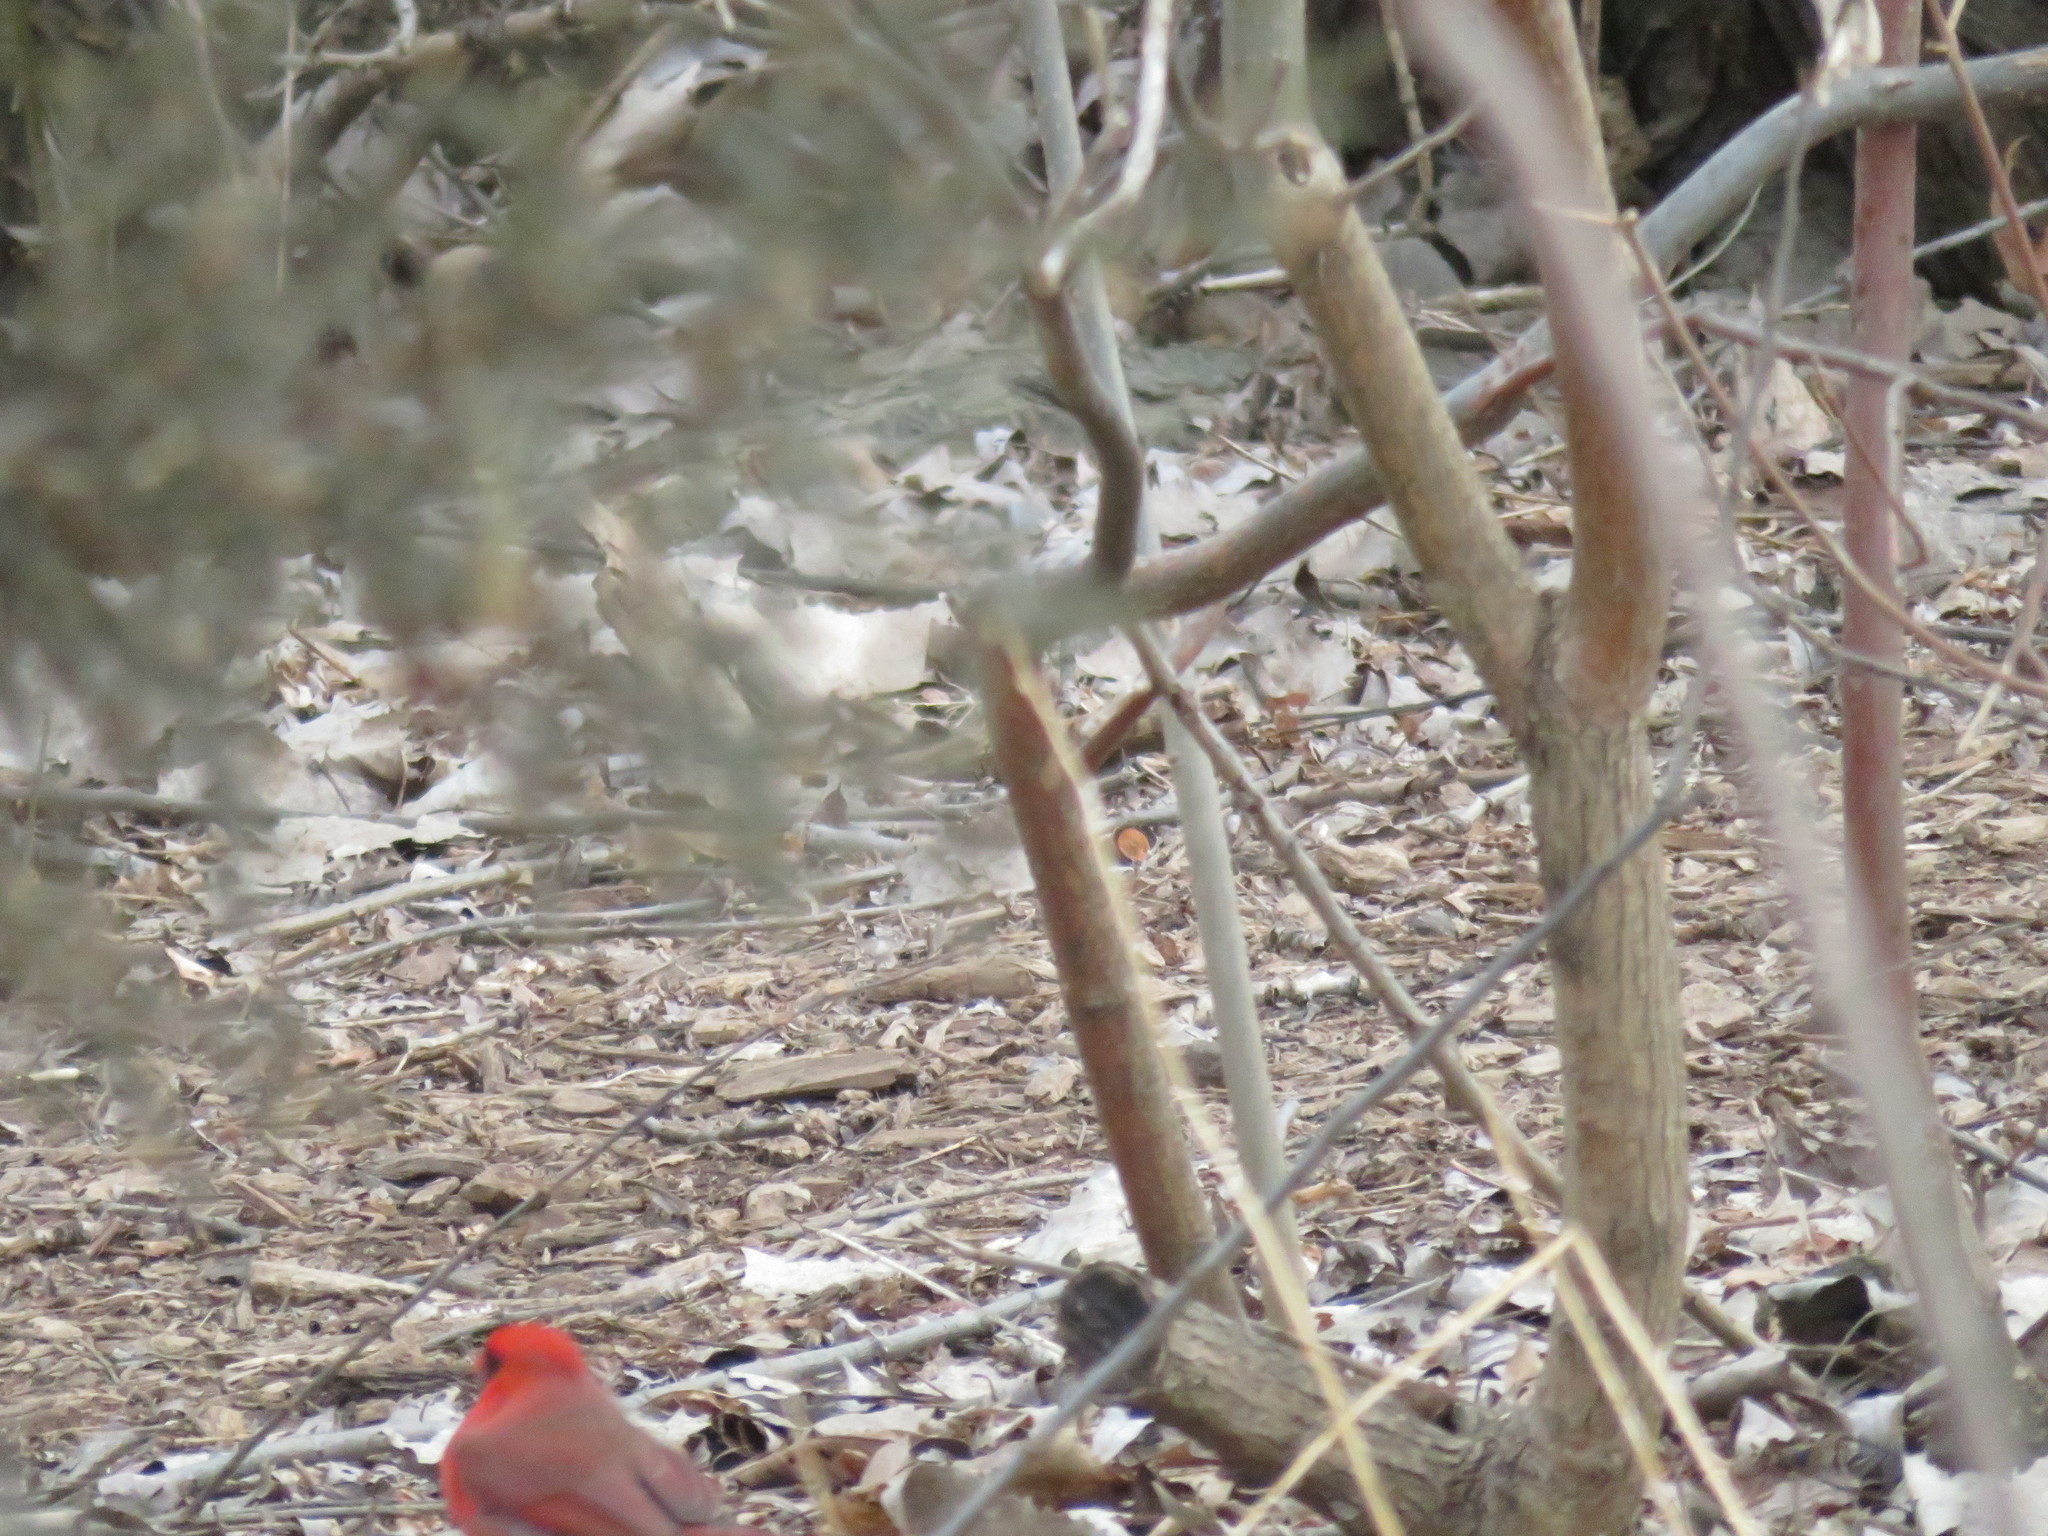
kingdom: Animalia
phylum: Chordata
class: Aves
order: Passeriformes
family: Cardinalidae
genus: Cardinalis
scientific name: Cardinalis cardinalis
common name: Northern cardinal
